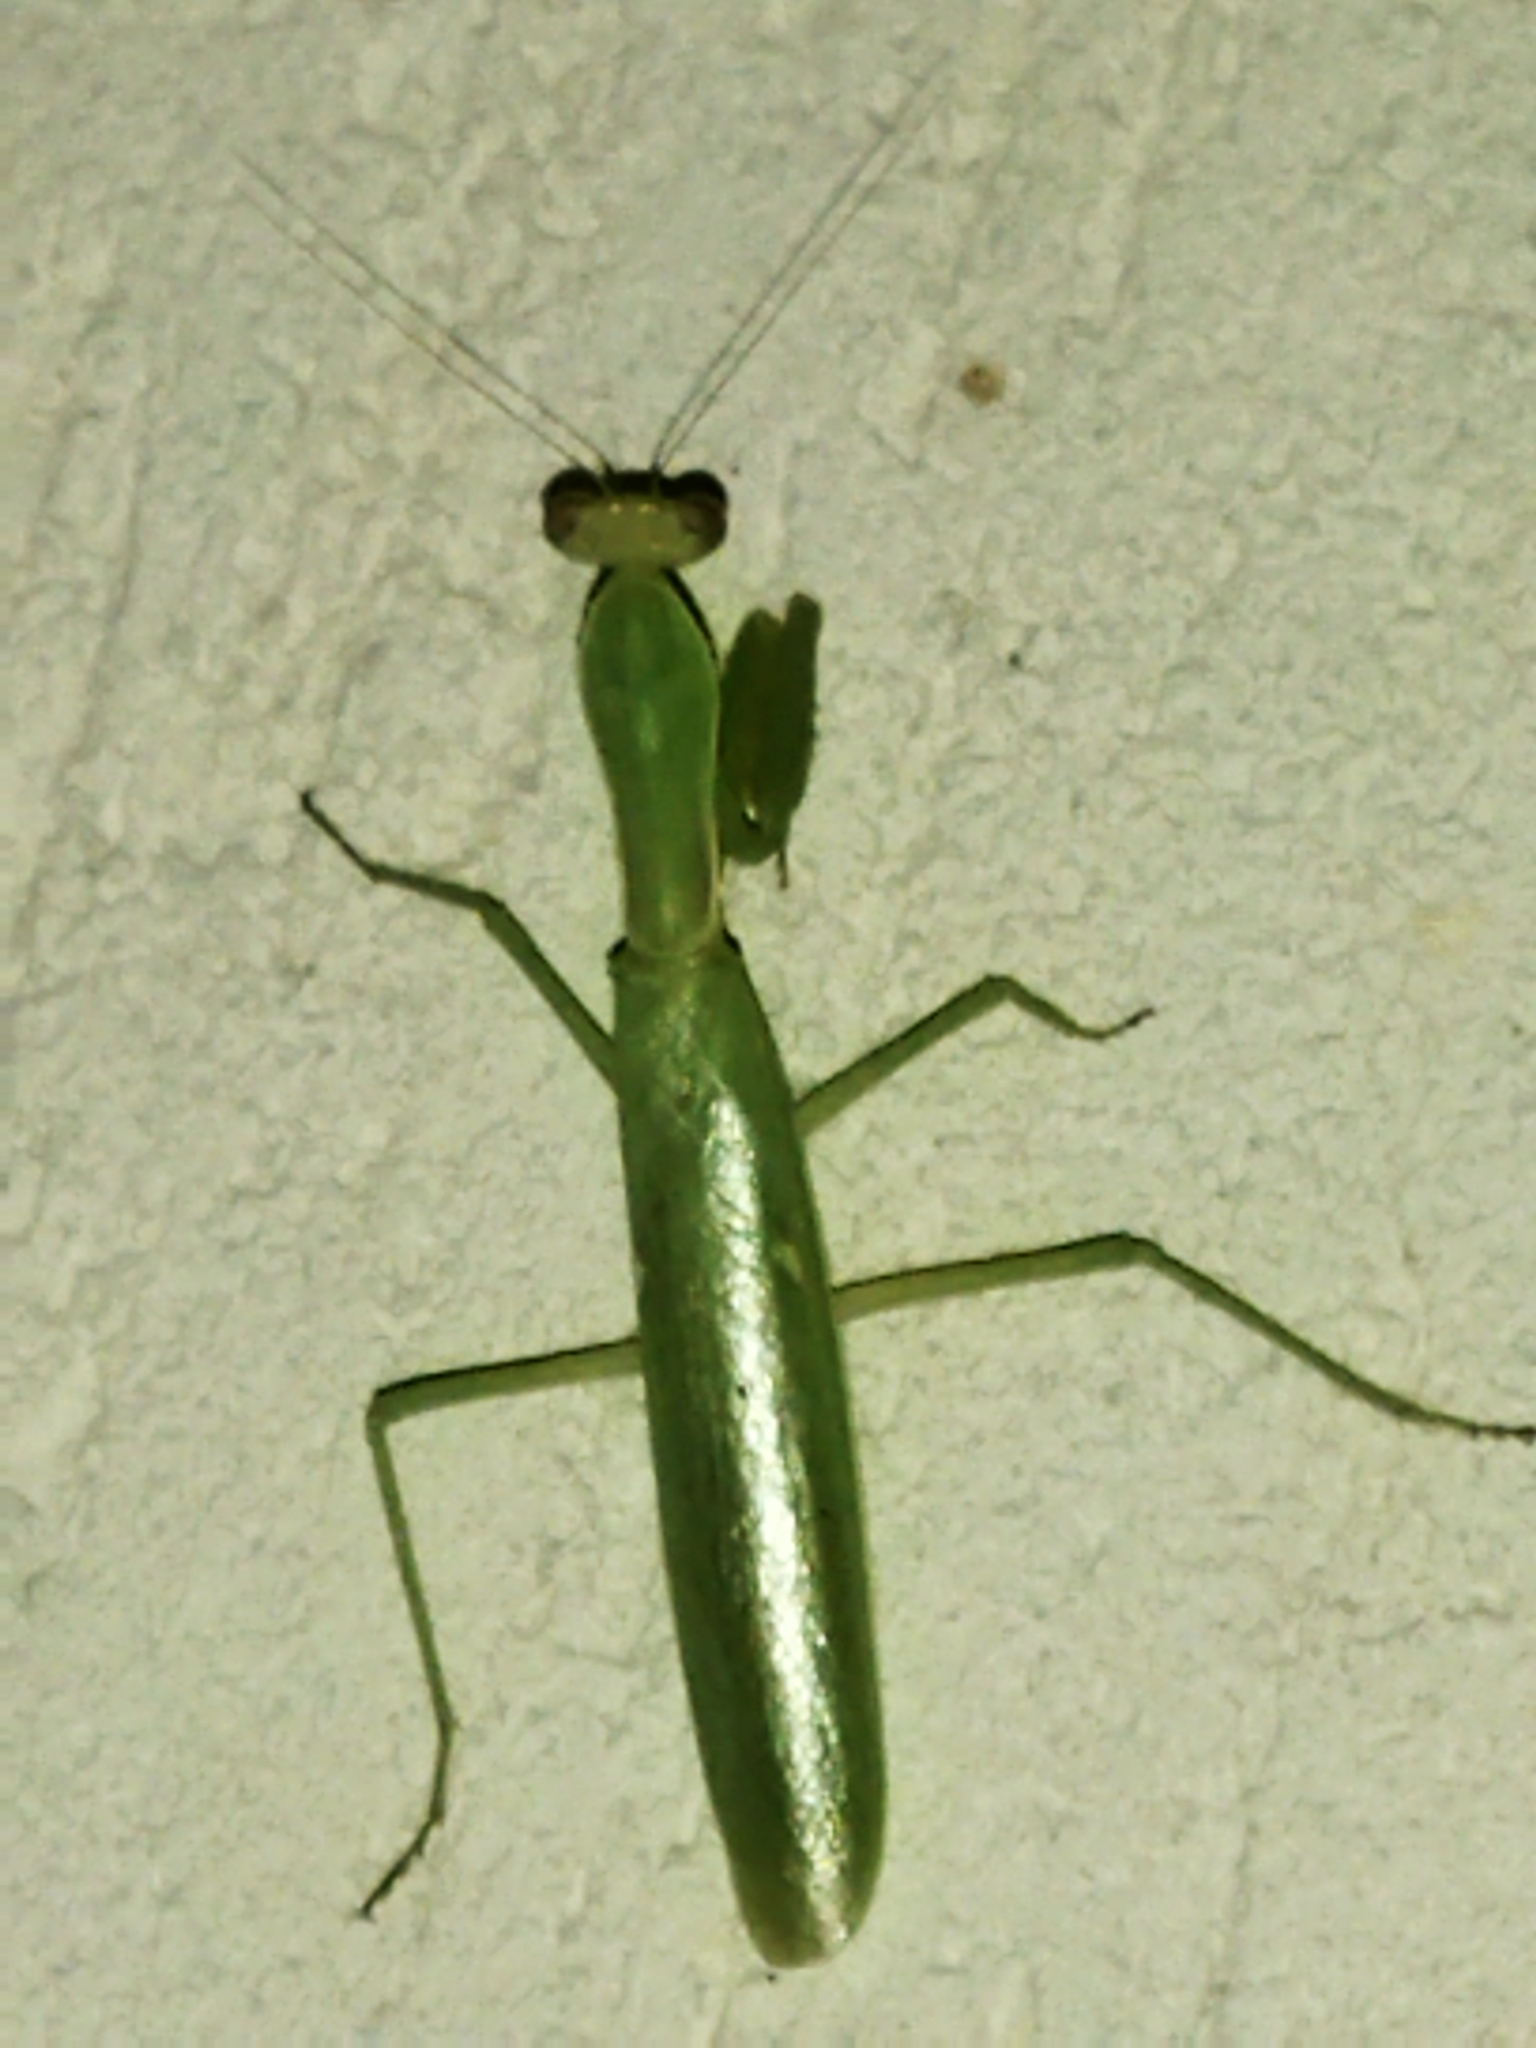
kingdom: Animalia
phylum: Arthropoda
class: Insecta
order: Mantodea
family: Mantidae
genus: Hierodula
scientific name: Hierodula transcaucasica
